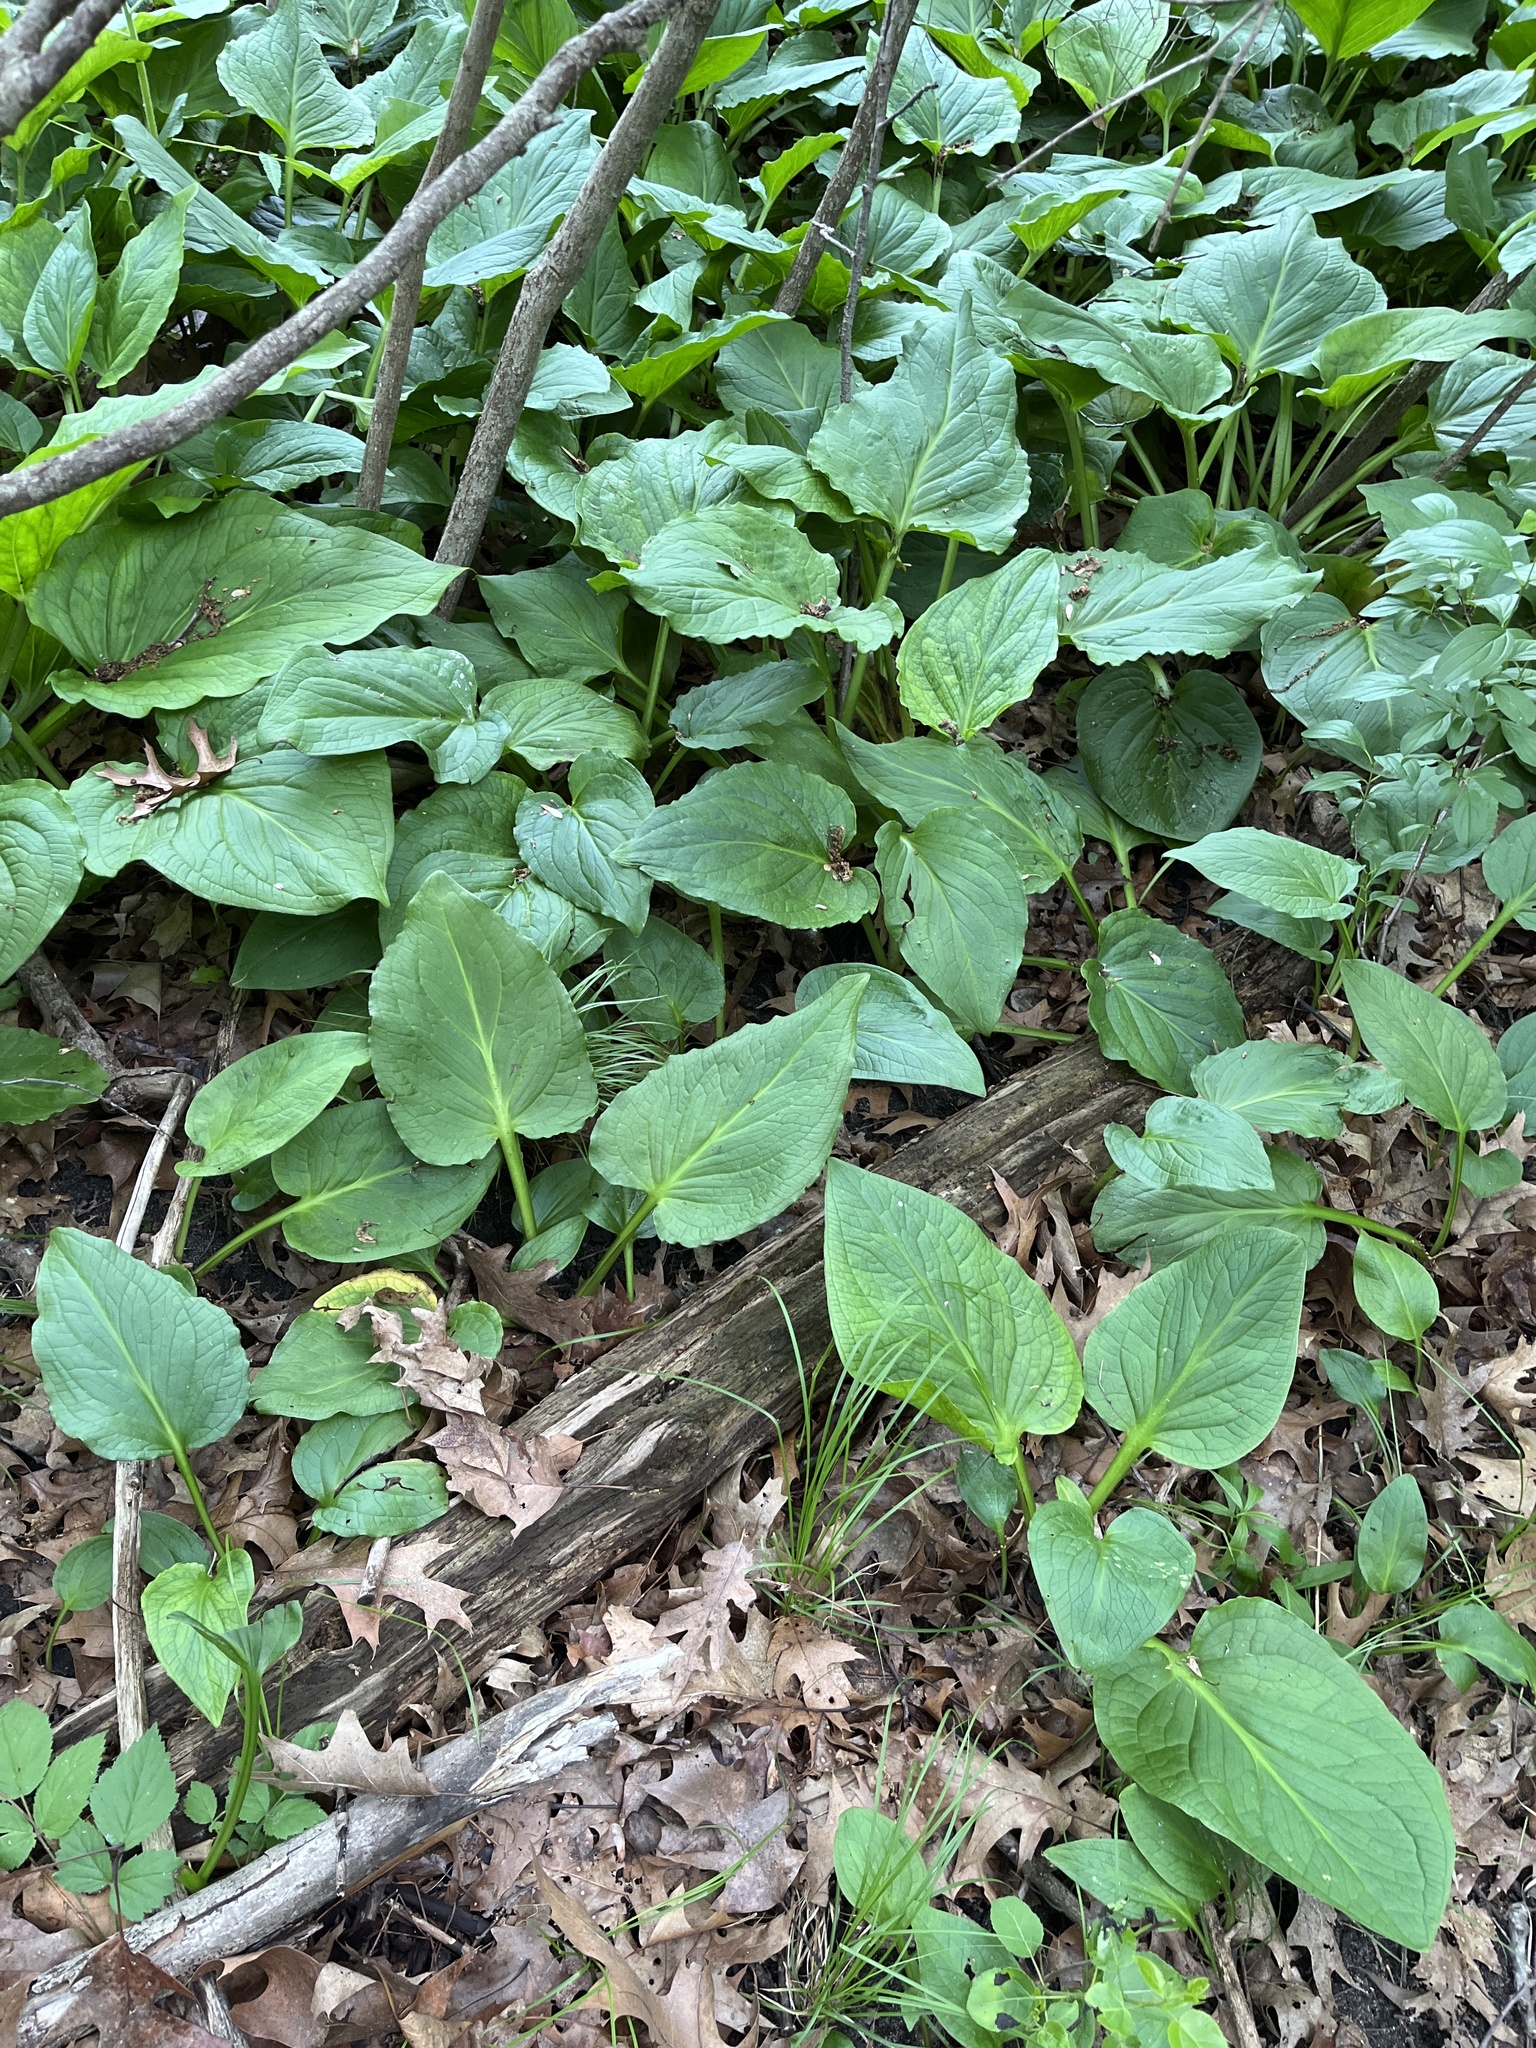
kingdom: Plantae
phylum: Tracheophyta
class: Liliopsida
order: Alismatales
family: Araceae
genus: Symplocarpus
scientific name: Symplocarpus foetidus
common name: Eastern skunk cabbage
